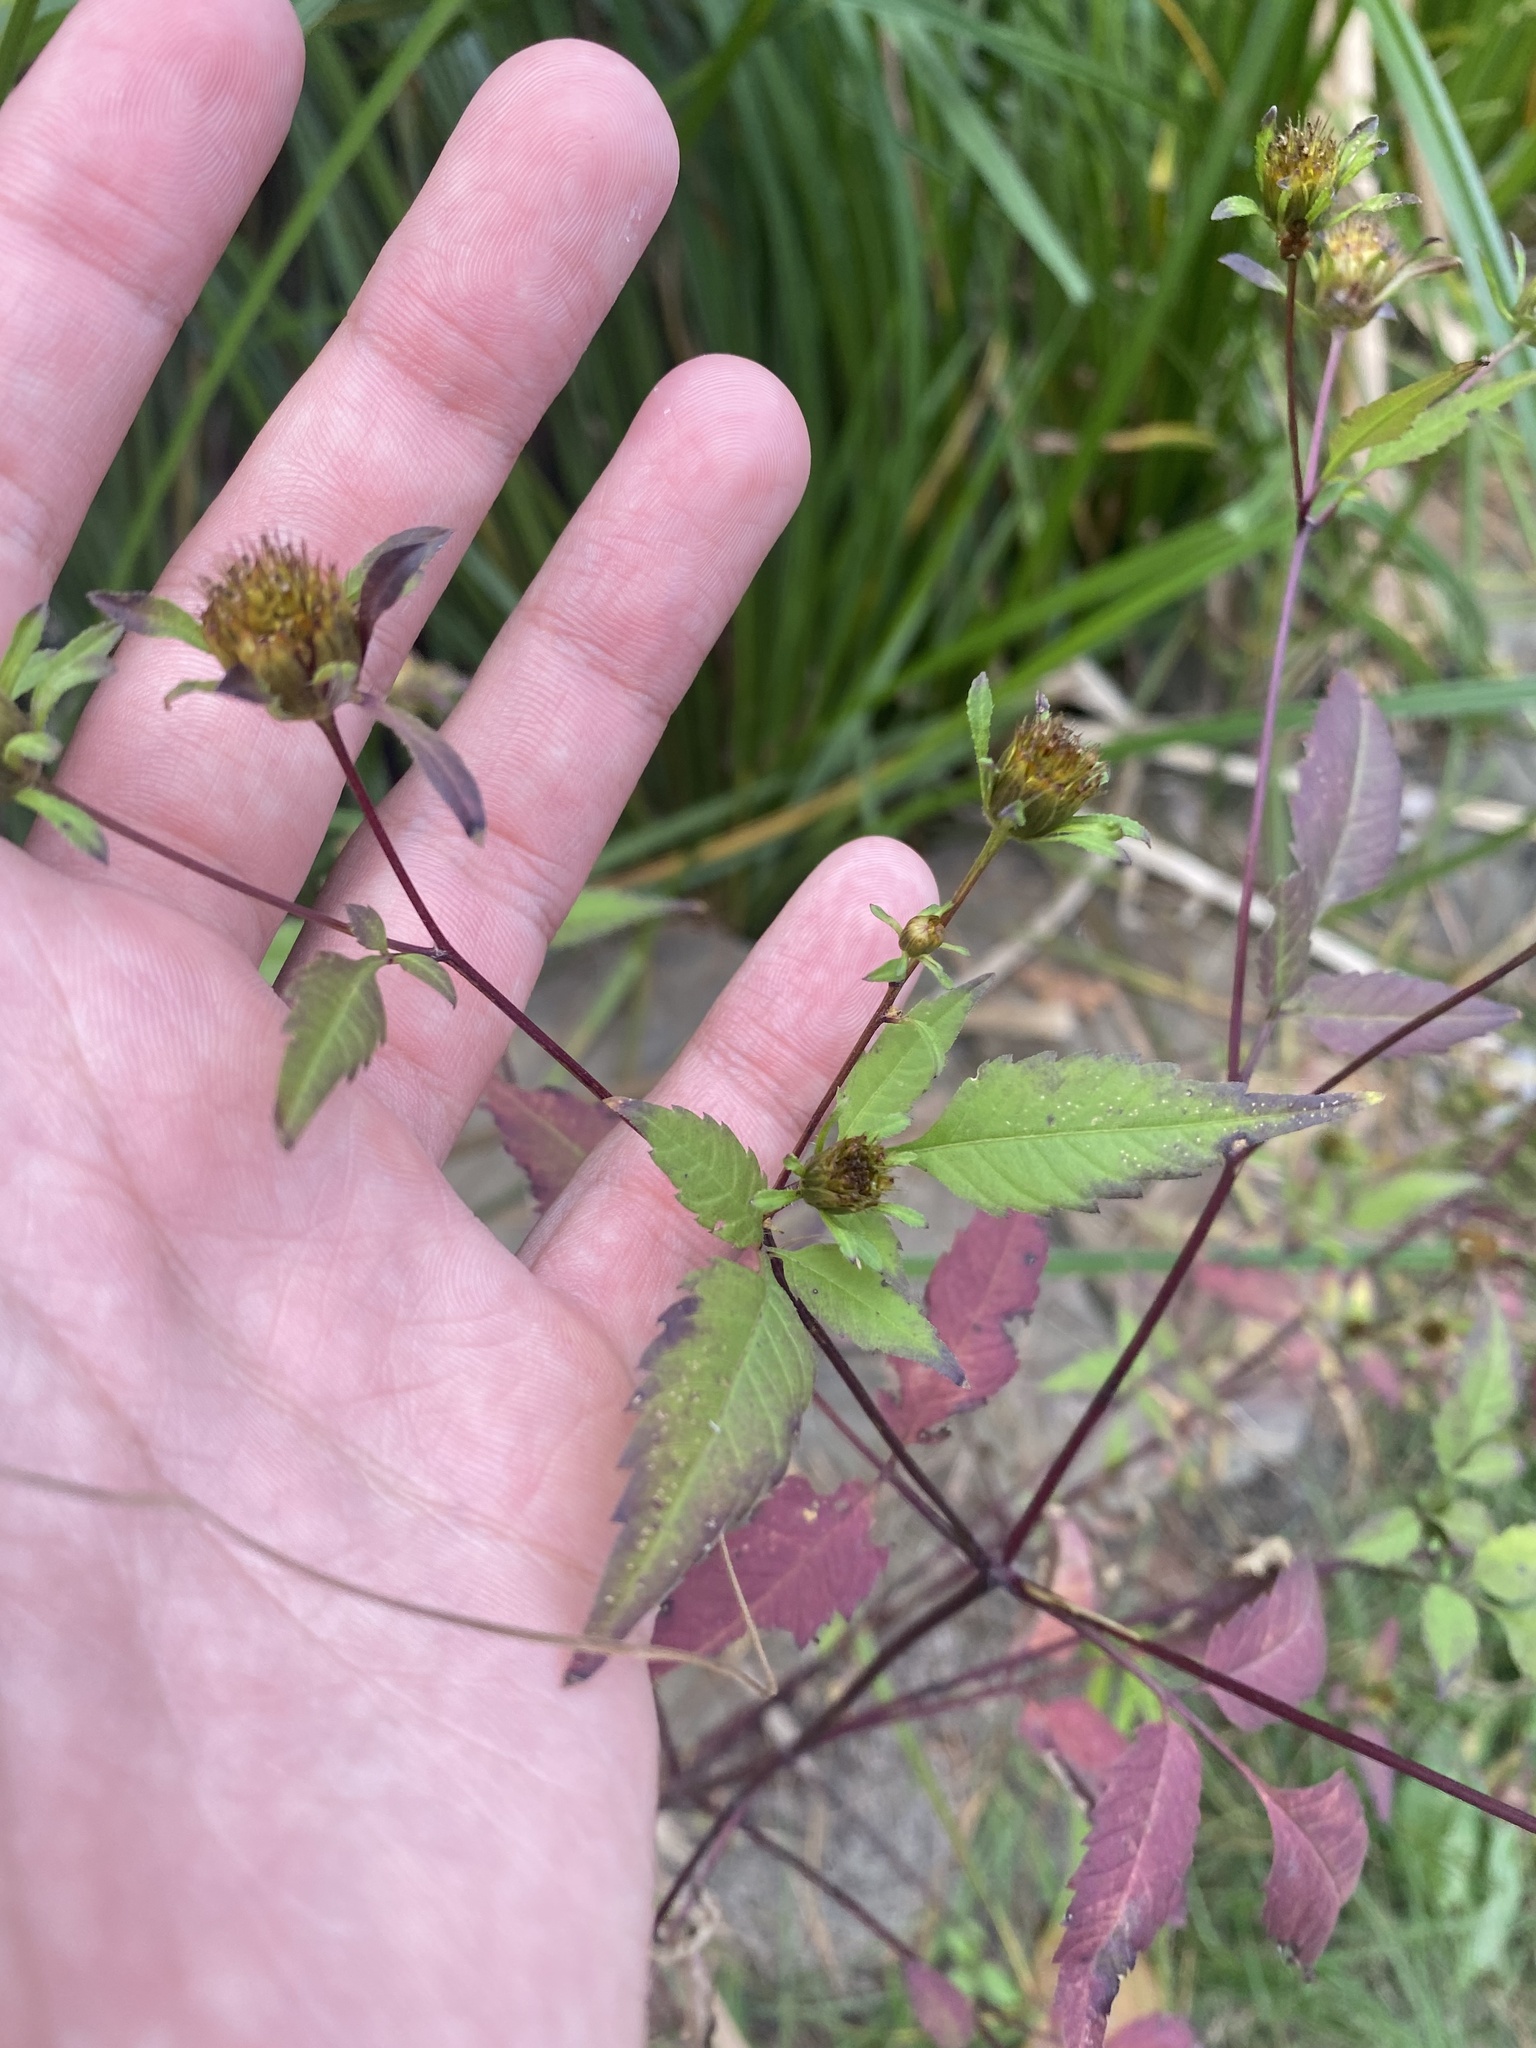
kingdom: Plantae
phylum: Tracheophyta
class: Magnoliopsida
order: Asterales
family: Asteraceae
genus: Bidens
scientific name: Bidens frondosa
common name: Beggarticks
